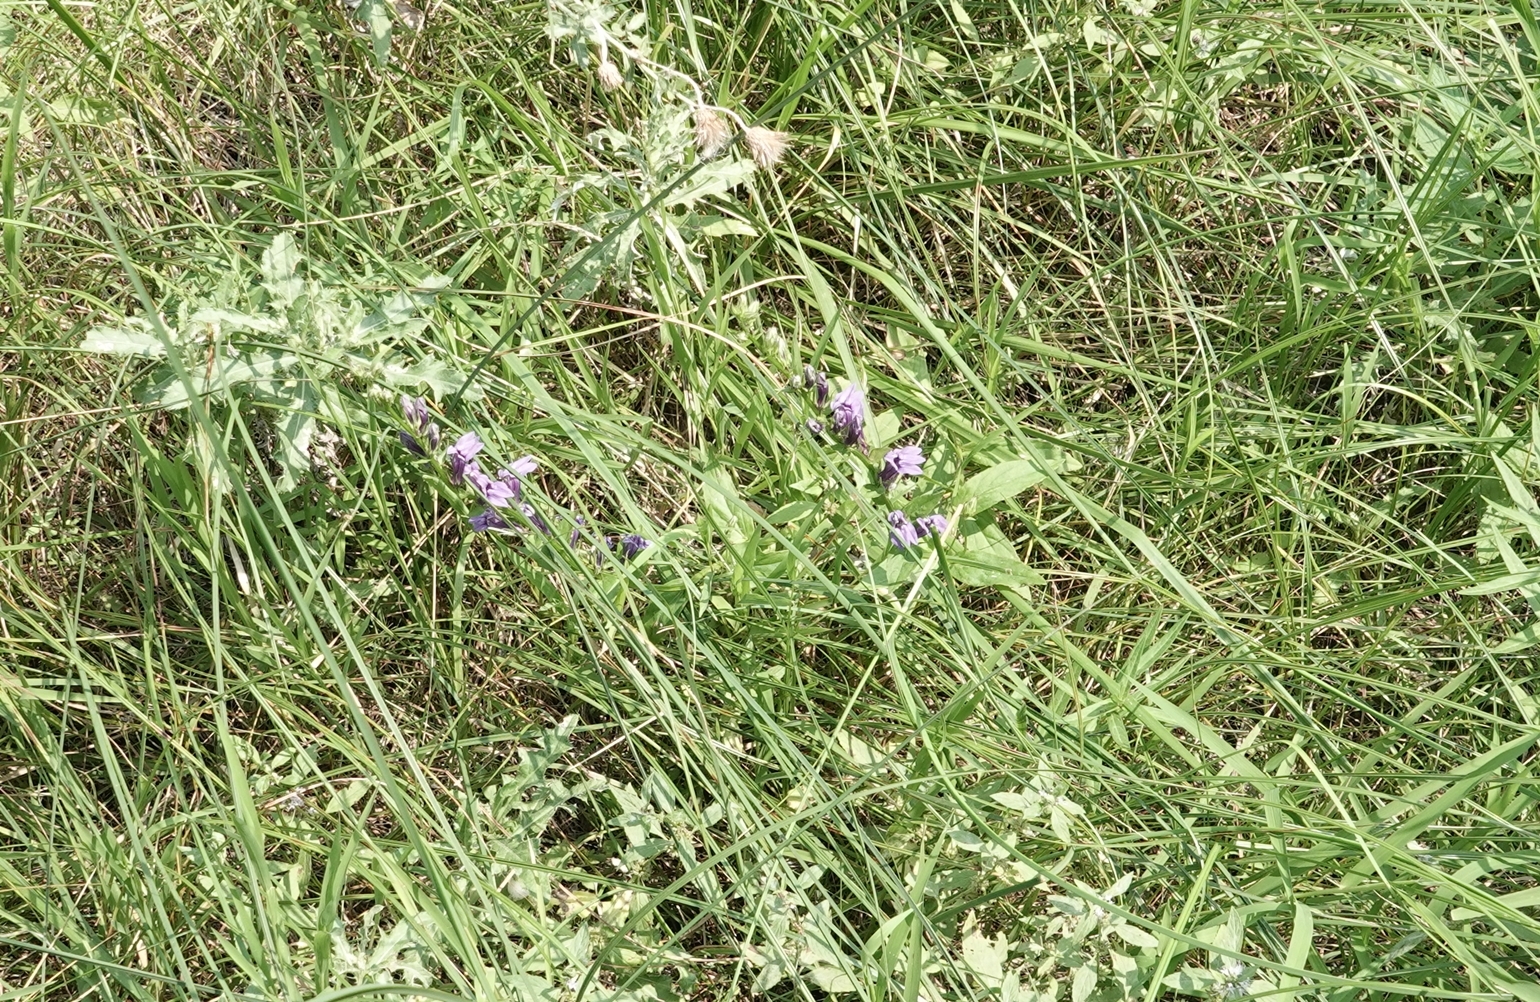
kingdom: Plantae
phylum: Tracheophyta
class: Magnoliopsida
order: Asterales
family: Campanulaceae
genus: Lobelia
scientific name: Lobelia siphilitica
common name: Great lobelia
